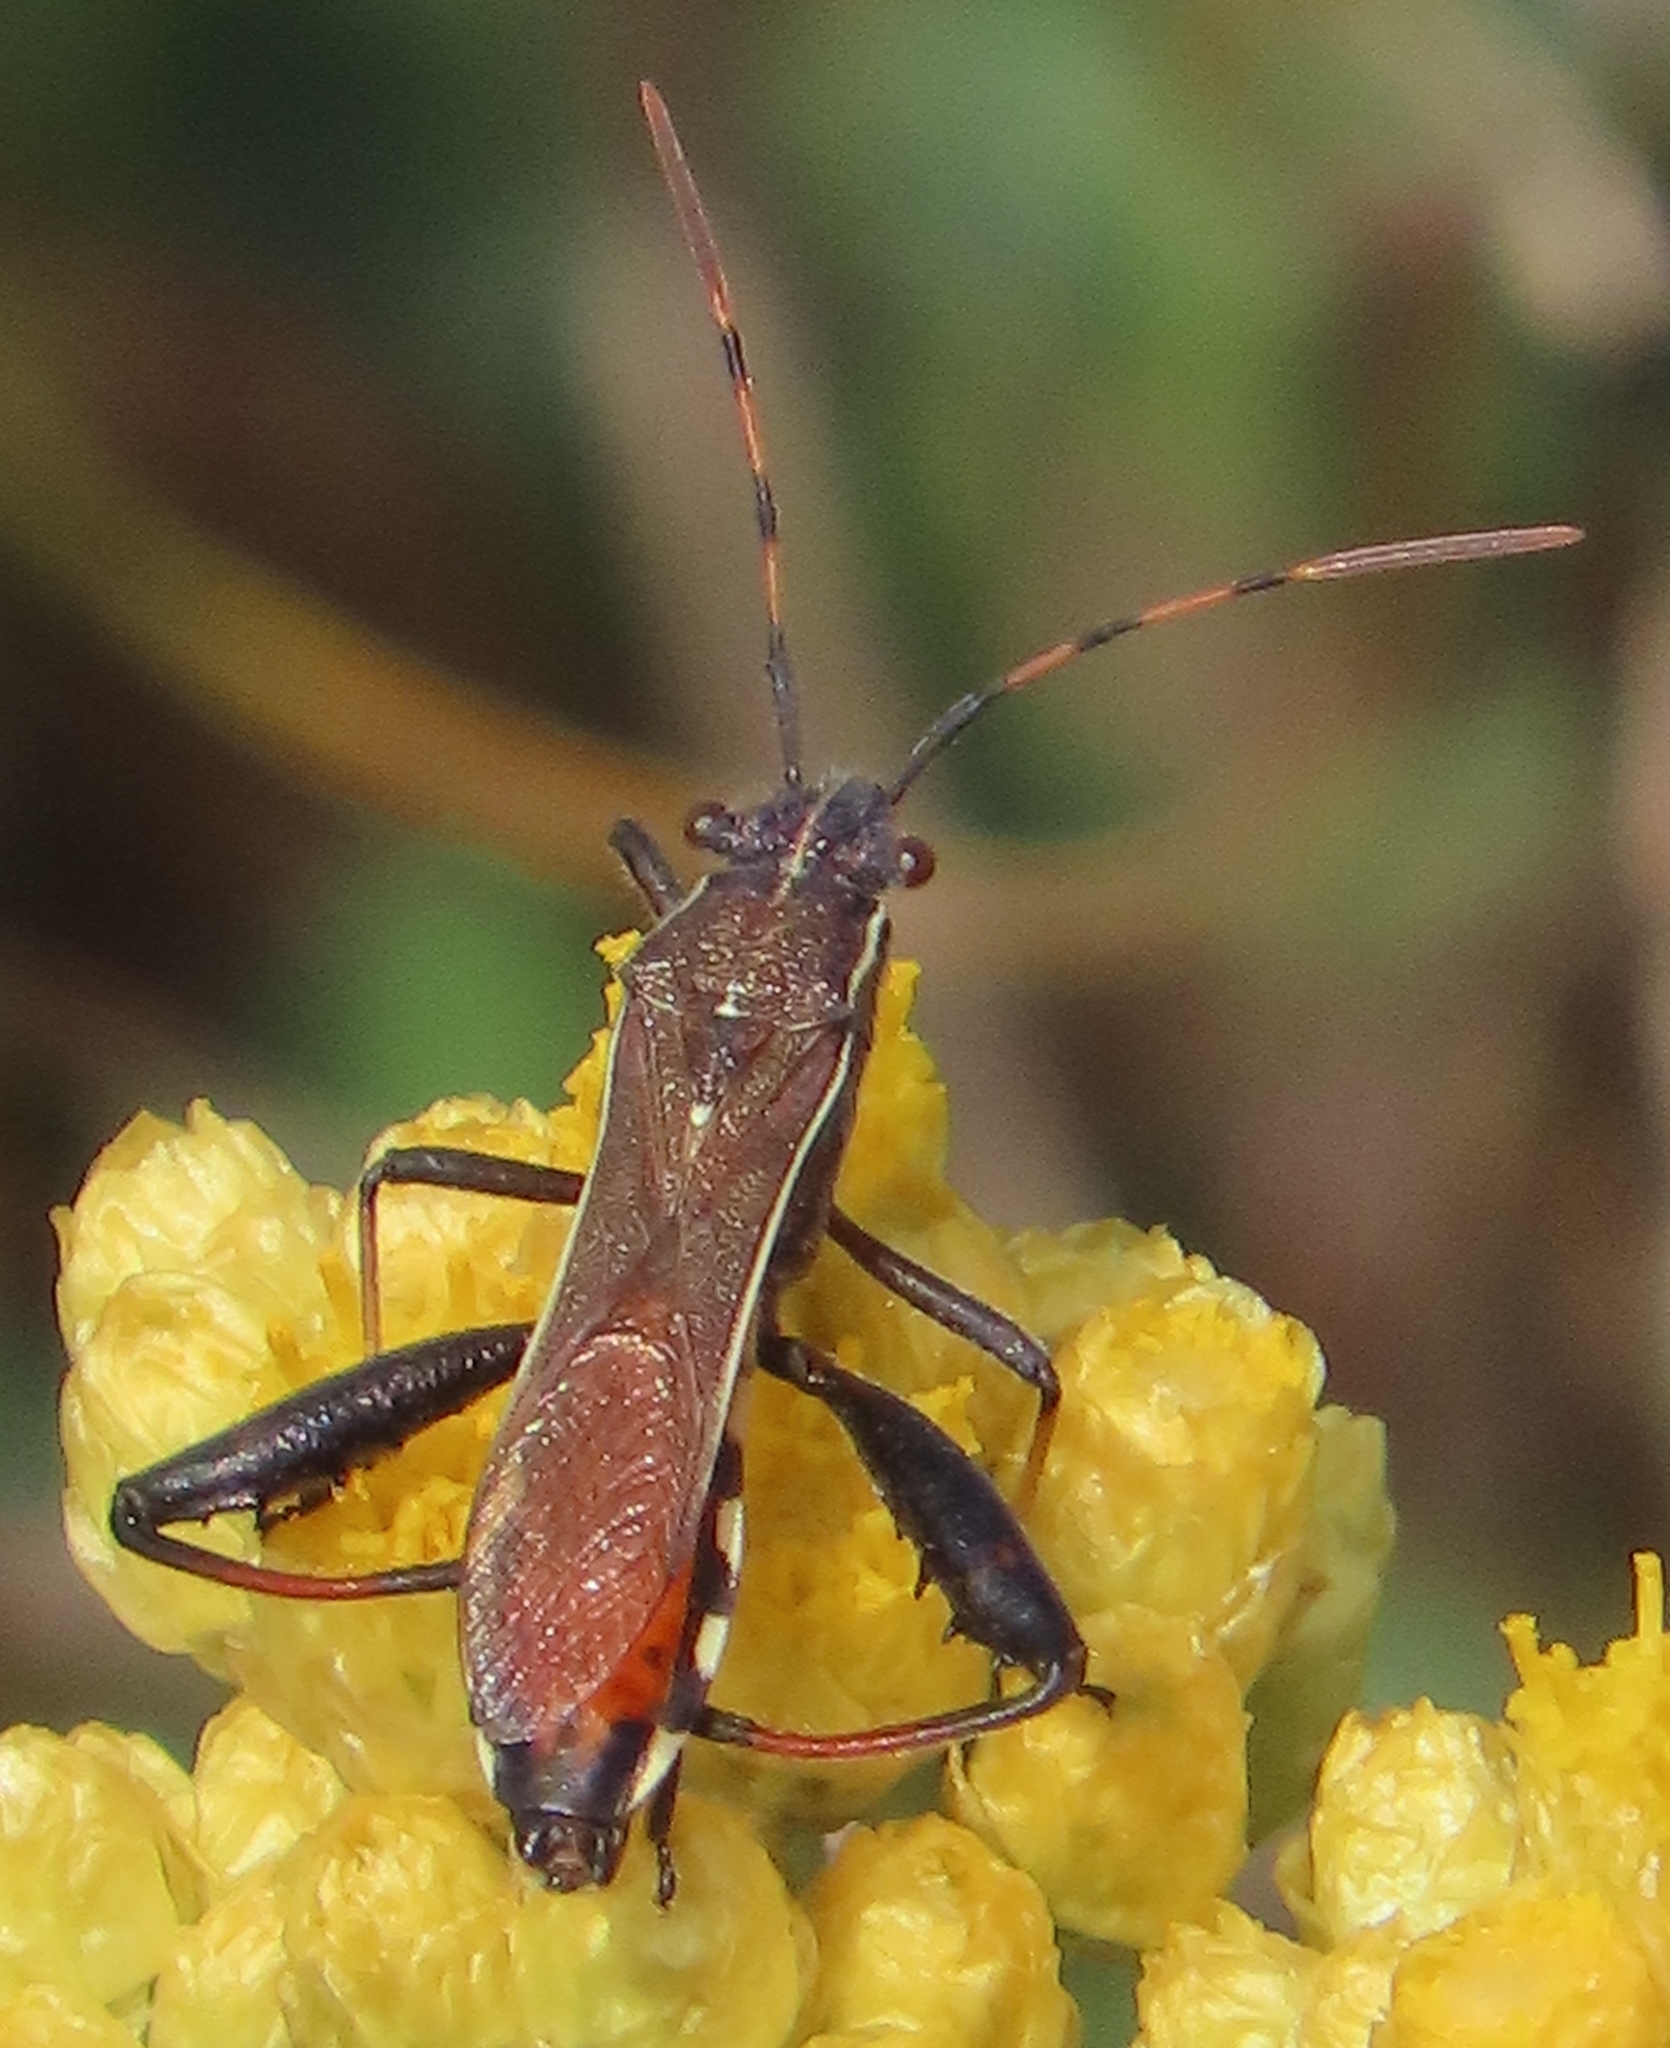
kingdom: Animalia
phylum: Arthropoda
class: Insecta
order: Hemiptera
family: Alydidae
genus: Camptopus
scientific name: Camptopus lateralis
